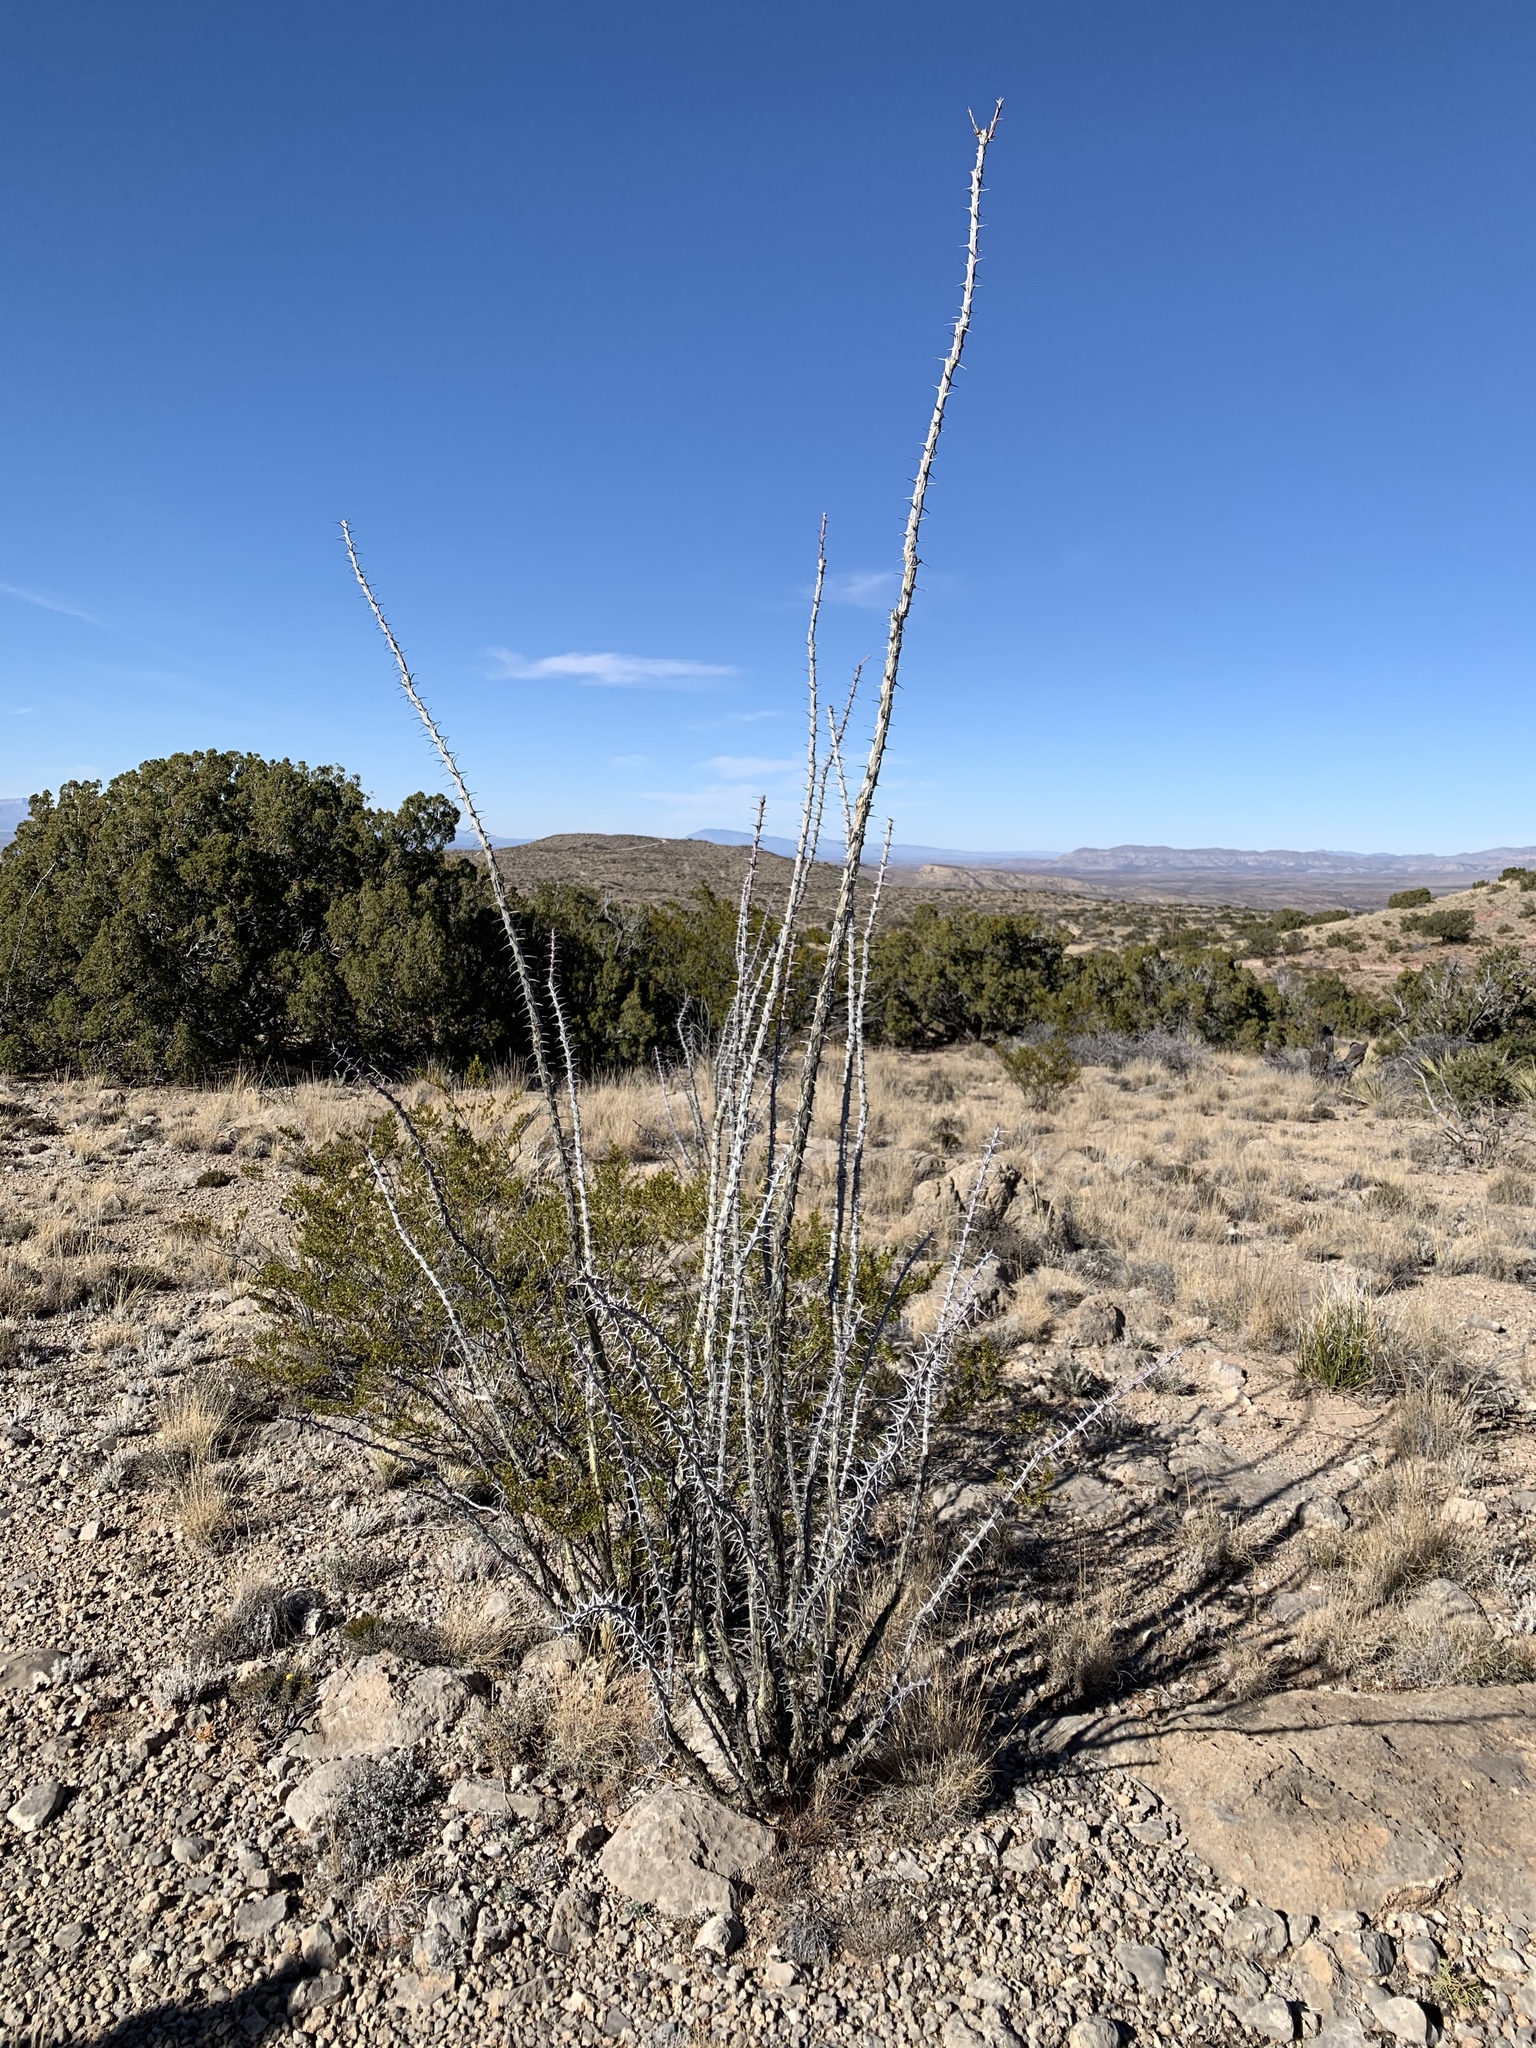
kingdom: Plantae
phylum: Tracheophyta
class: Magnoliopsida
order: Ericales
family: Fouquieriaceae
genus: Fouquieria
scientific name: Fouquieria splendens
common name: Vine-cactus
